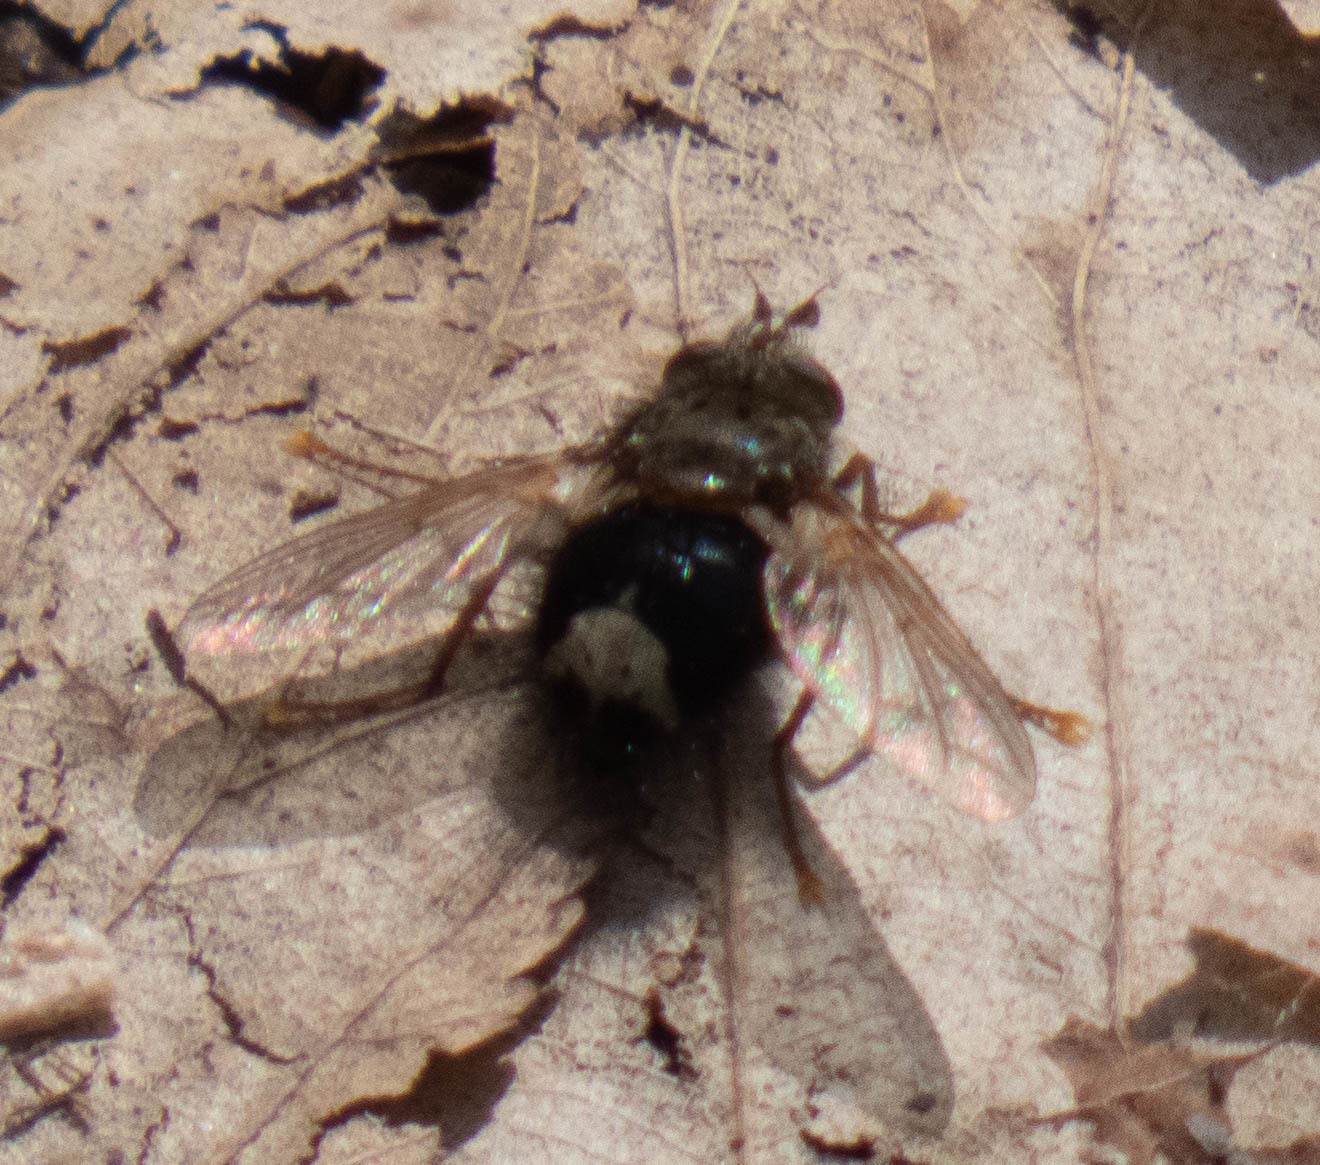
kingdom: Animalia
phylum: Arthropoda
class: Insecta
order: Diptera
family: Tachinidae
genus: Epalpus
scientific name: Epalpus signifer
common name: Early tachinid fly
